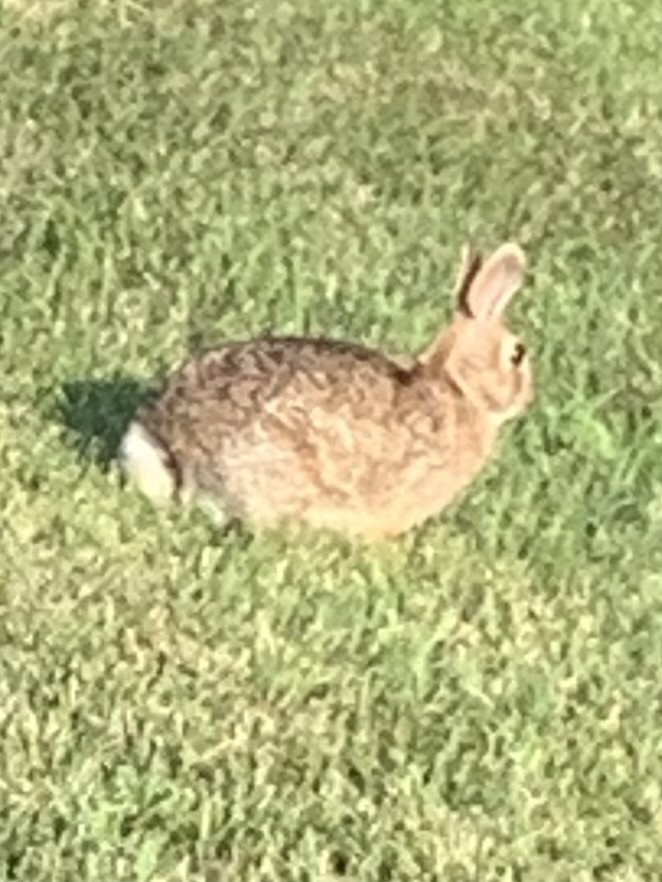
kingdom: Animalia
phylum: Chordata
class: Mammalia
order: Lagomorpha
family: Leporidae
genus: Sylvilagus
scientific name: Sylvilagus floridanus
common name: Eastern cottontail
